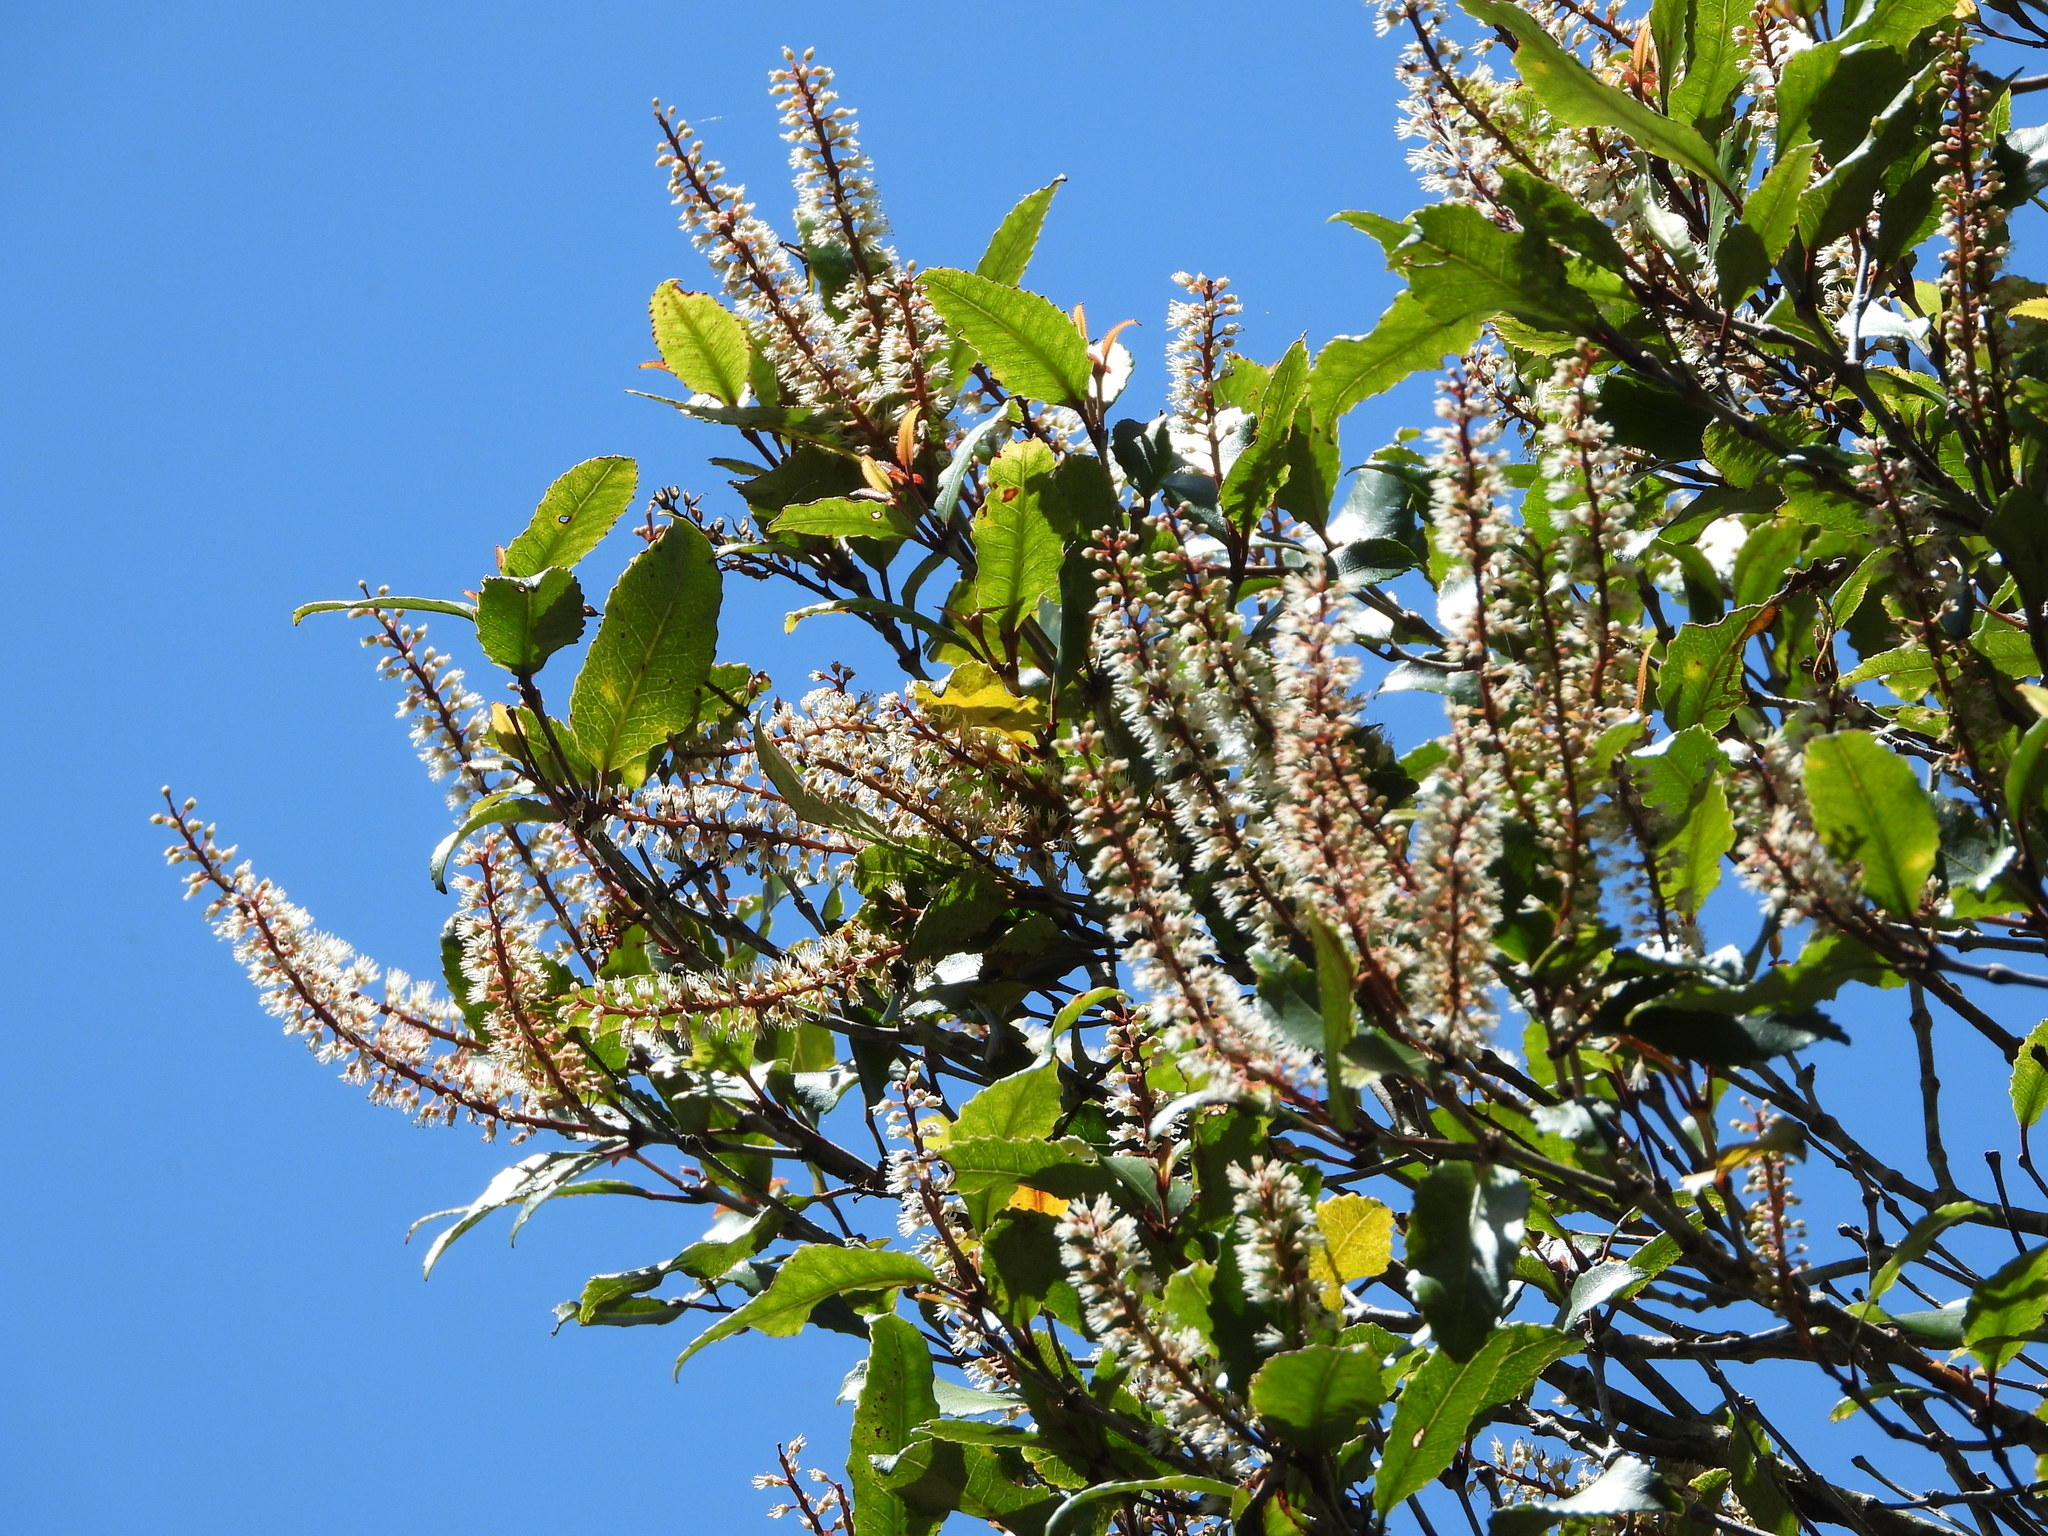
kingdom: Plantae
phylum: Tracheophyta
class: Magnoliopsida
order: Oxalidales
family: Cunoniaceae
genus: Pterophylla
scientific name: Pterophylla racemosa
